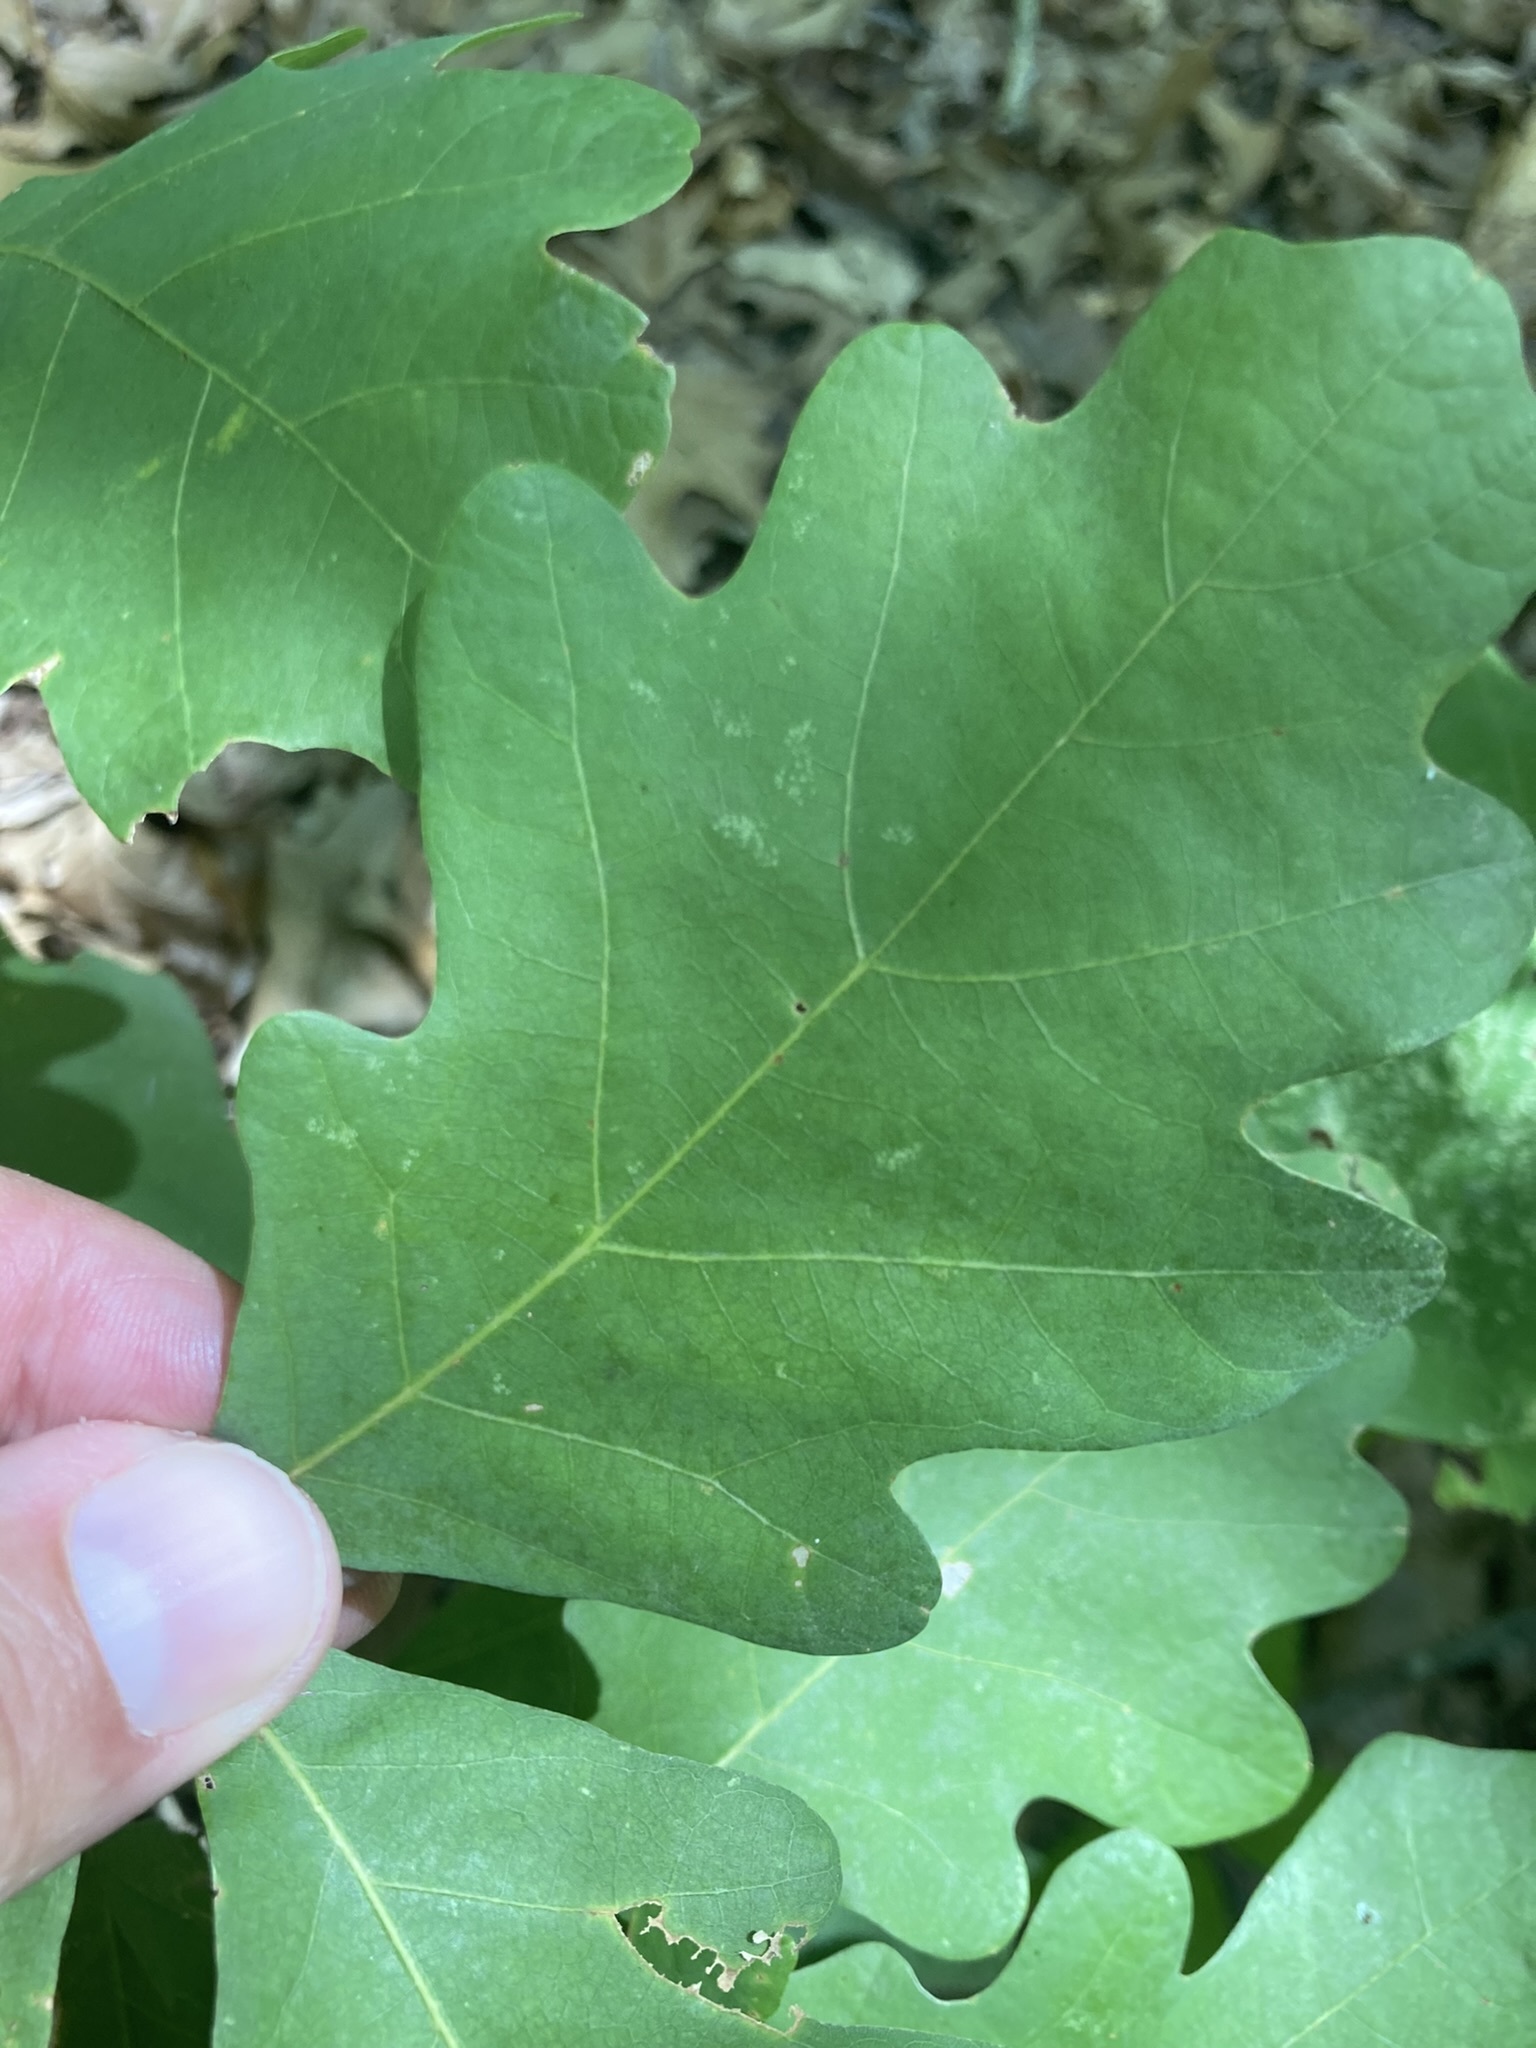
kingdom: Plantae
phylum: Tracheophyta
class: Magnoliopsida
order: Fagales
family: Fagaceae
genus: Quercus
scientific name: Quercus alba
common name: White oak
